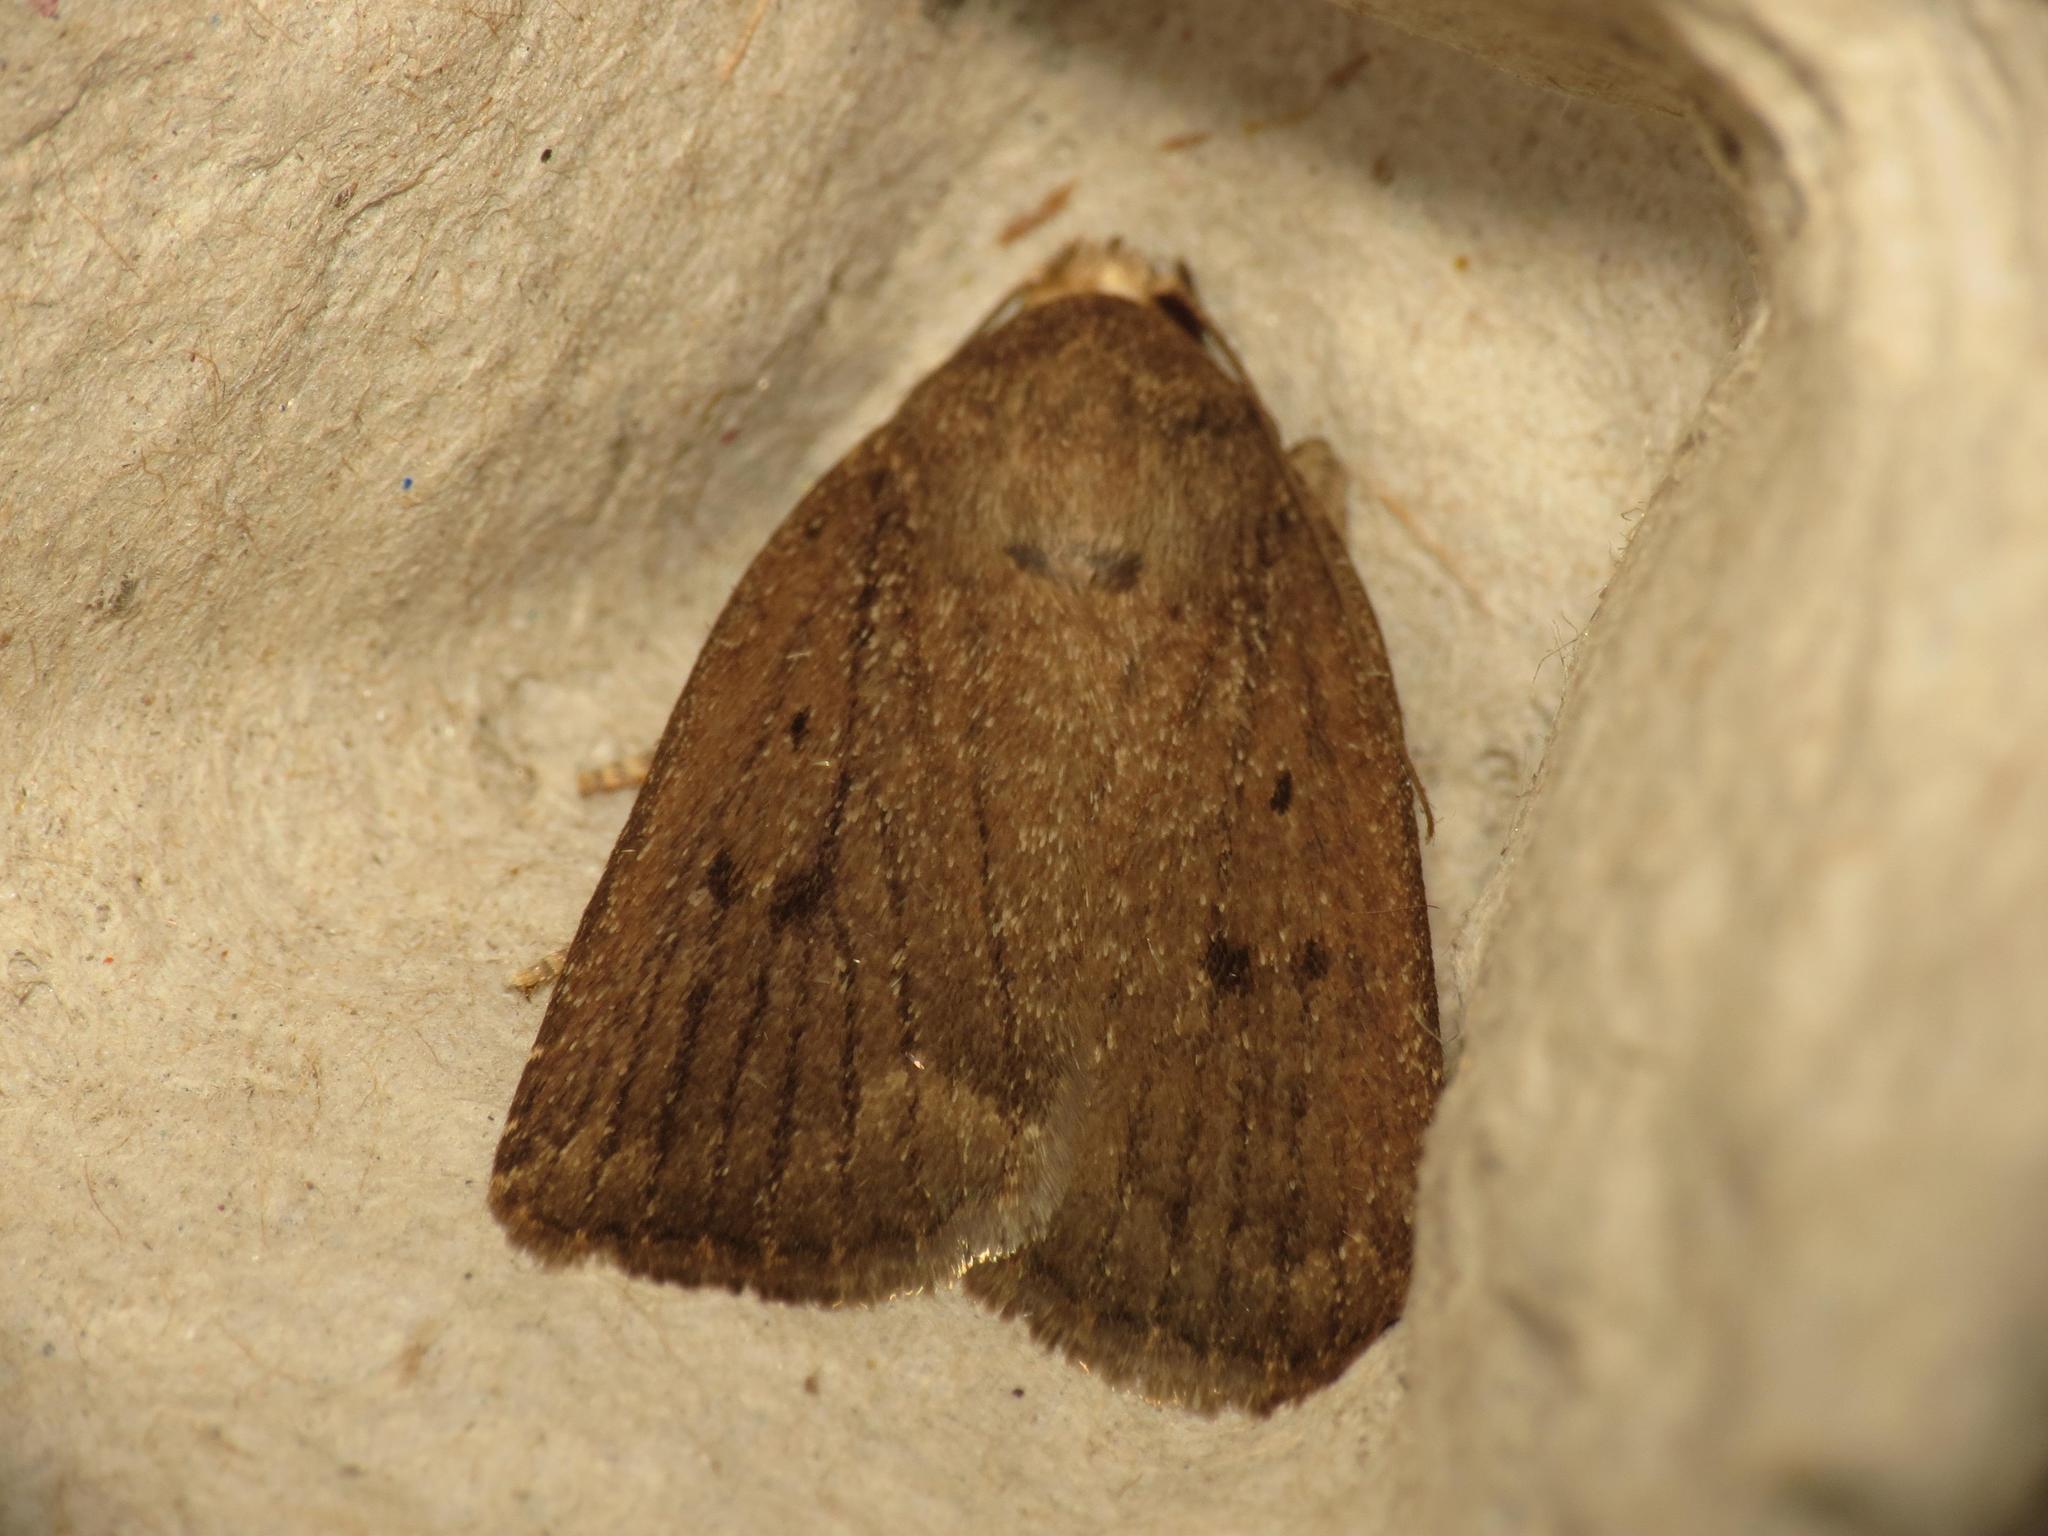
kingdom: Animalia
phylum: Arthropoda
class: Insecta
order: Lepidoptera
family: Noctuidae
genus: Amphipyra
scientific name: Amphipyra tragopoginis
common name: Mouse moth
